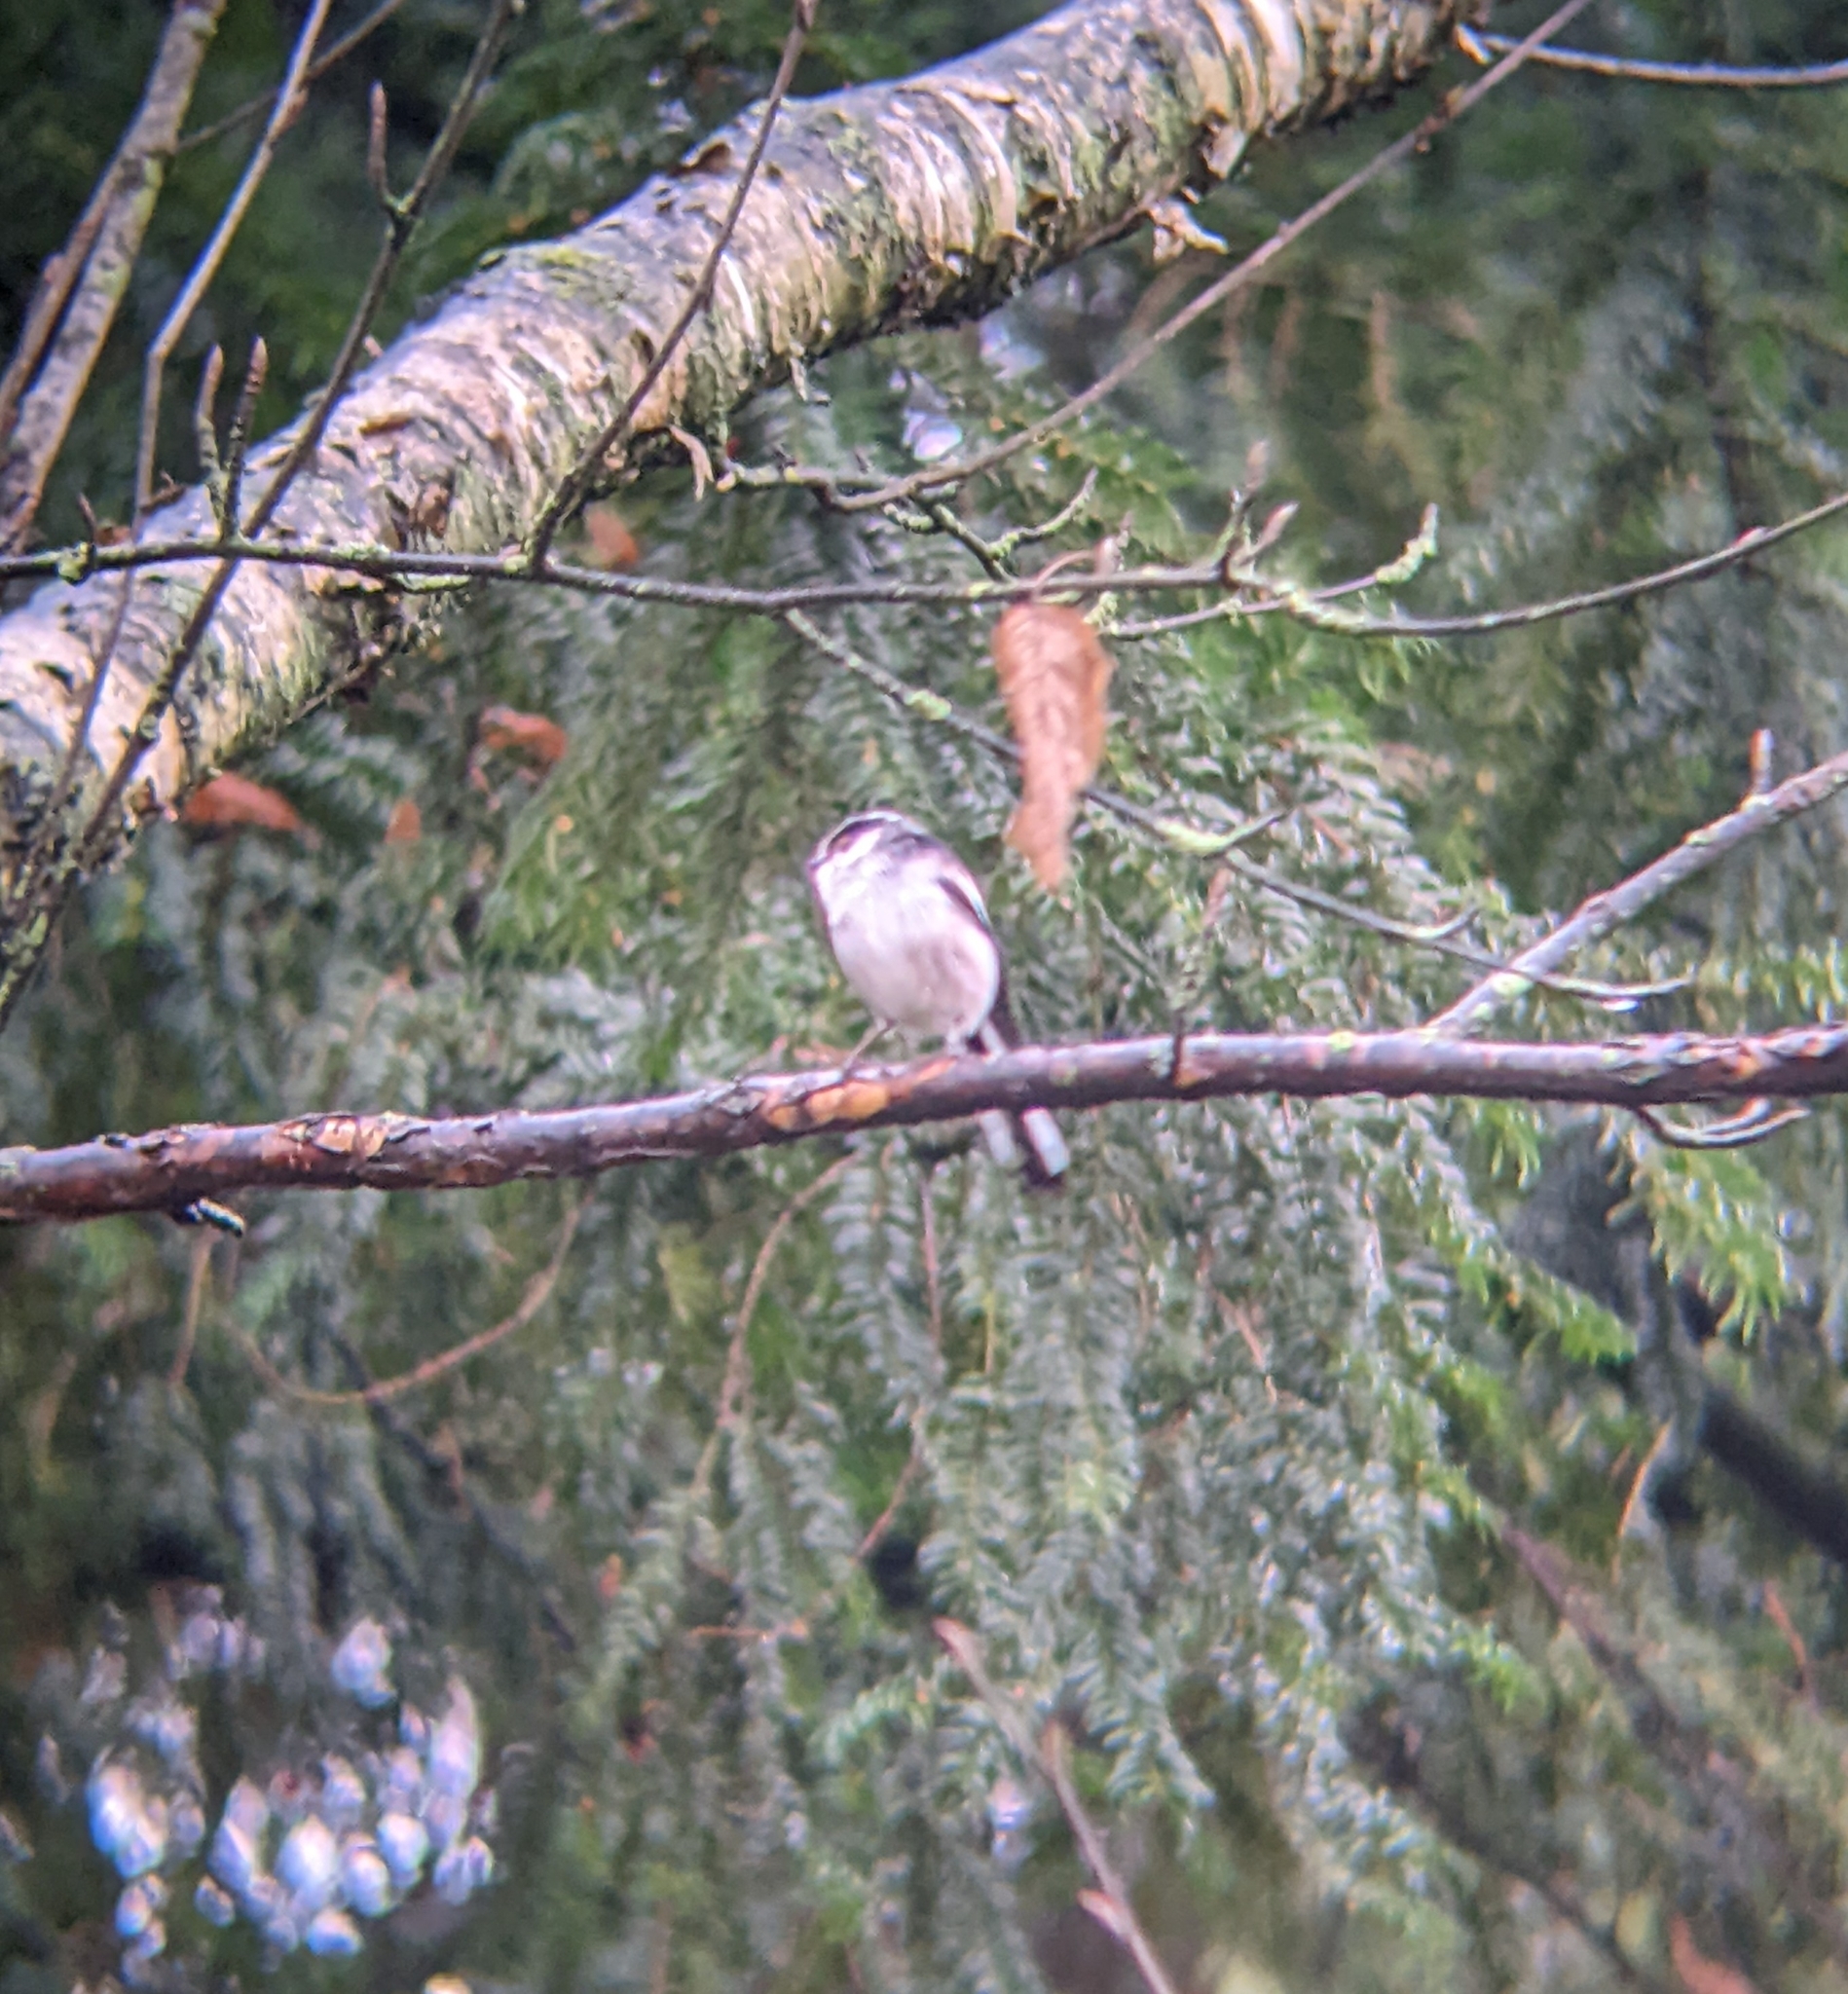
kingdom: Animalia
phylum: Chordata
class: Aves
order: Passeriformes
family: Aegithalidae
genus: Aegithalos
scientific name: Aegithalos caudatus
